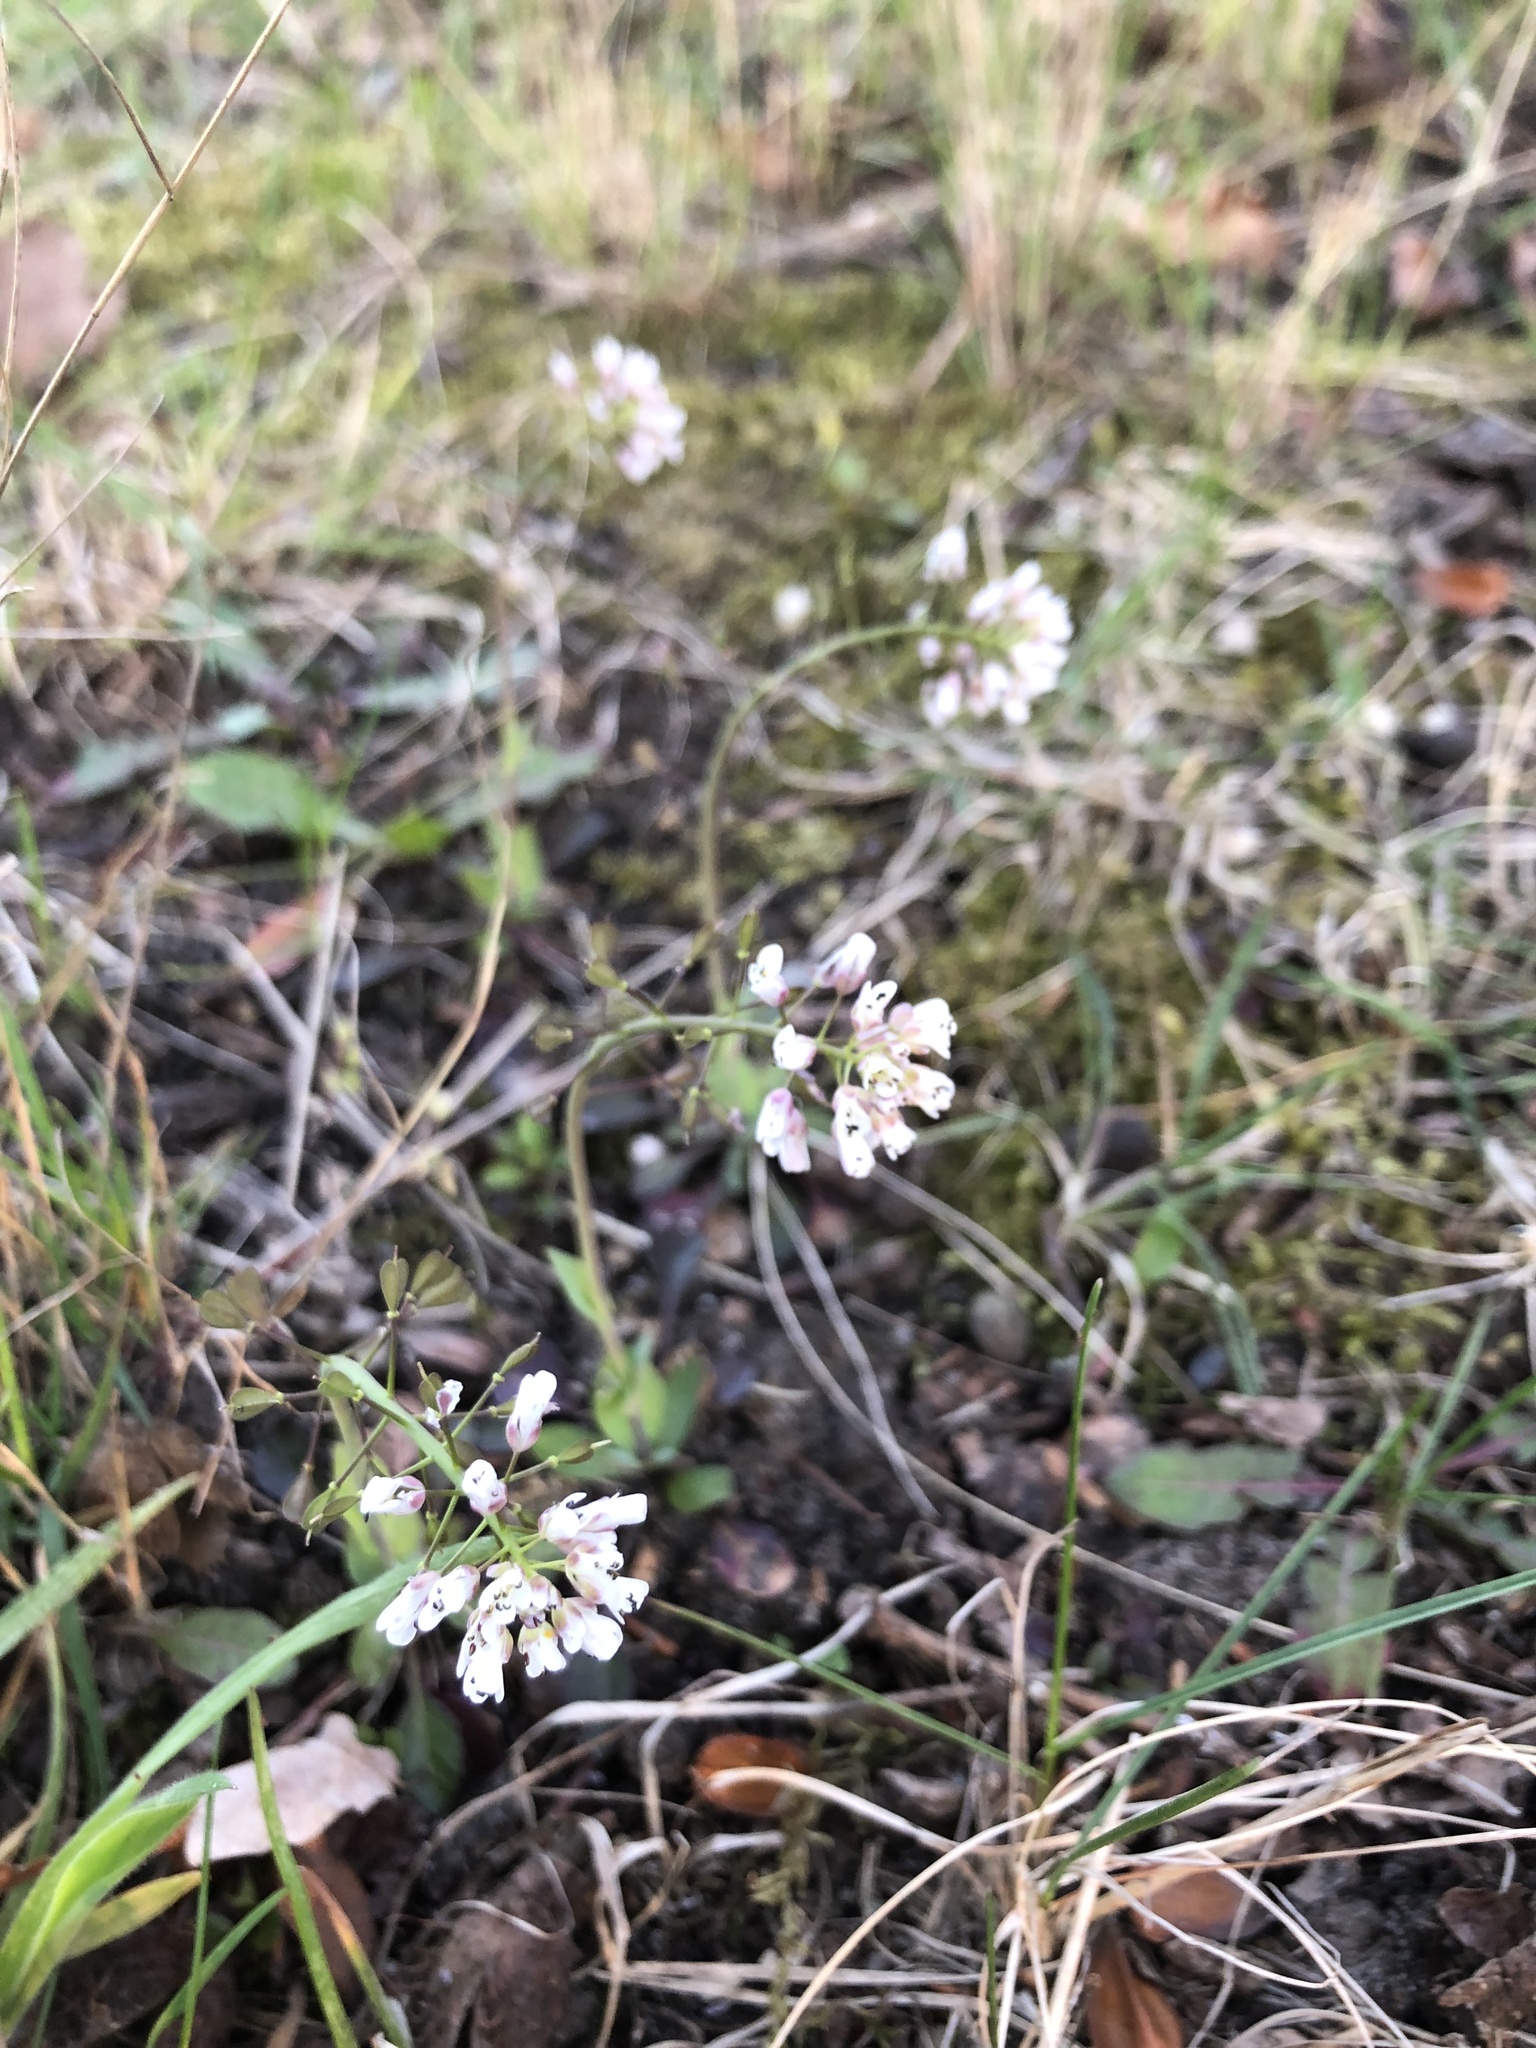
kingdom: Plantae
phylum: Tracheophyta
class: Magnoliopsida
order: Brassicales
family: Brassicaceae
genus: Capsella
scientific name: Capsella bursa-pastoris
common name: Shepherd's purse
